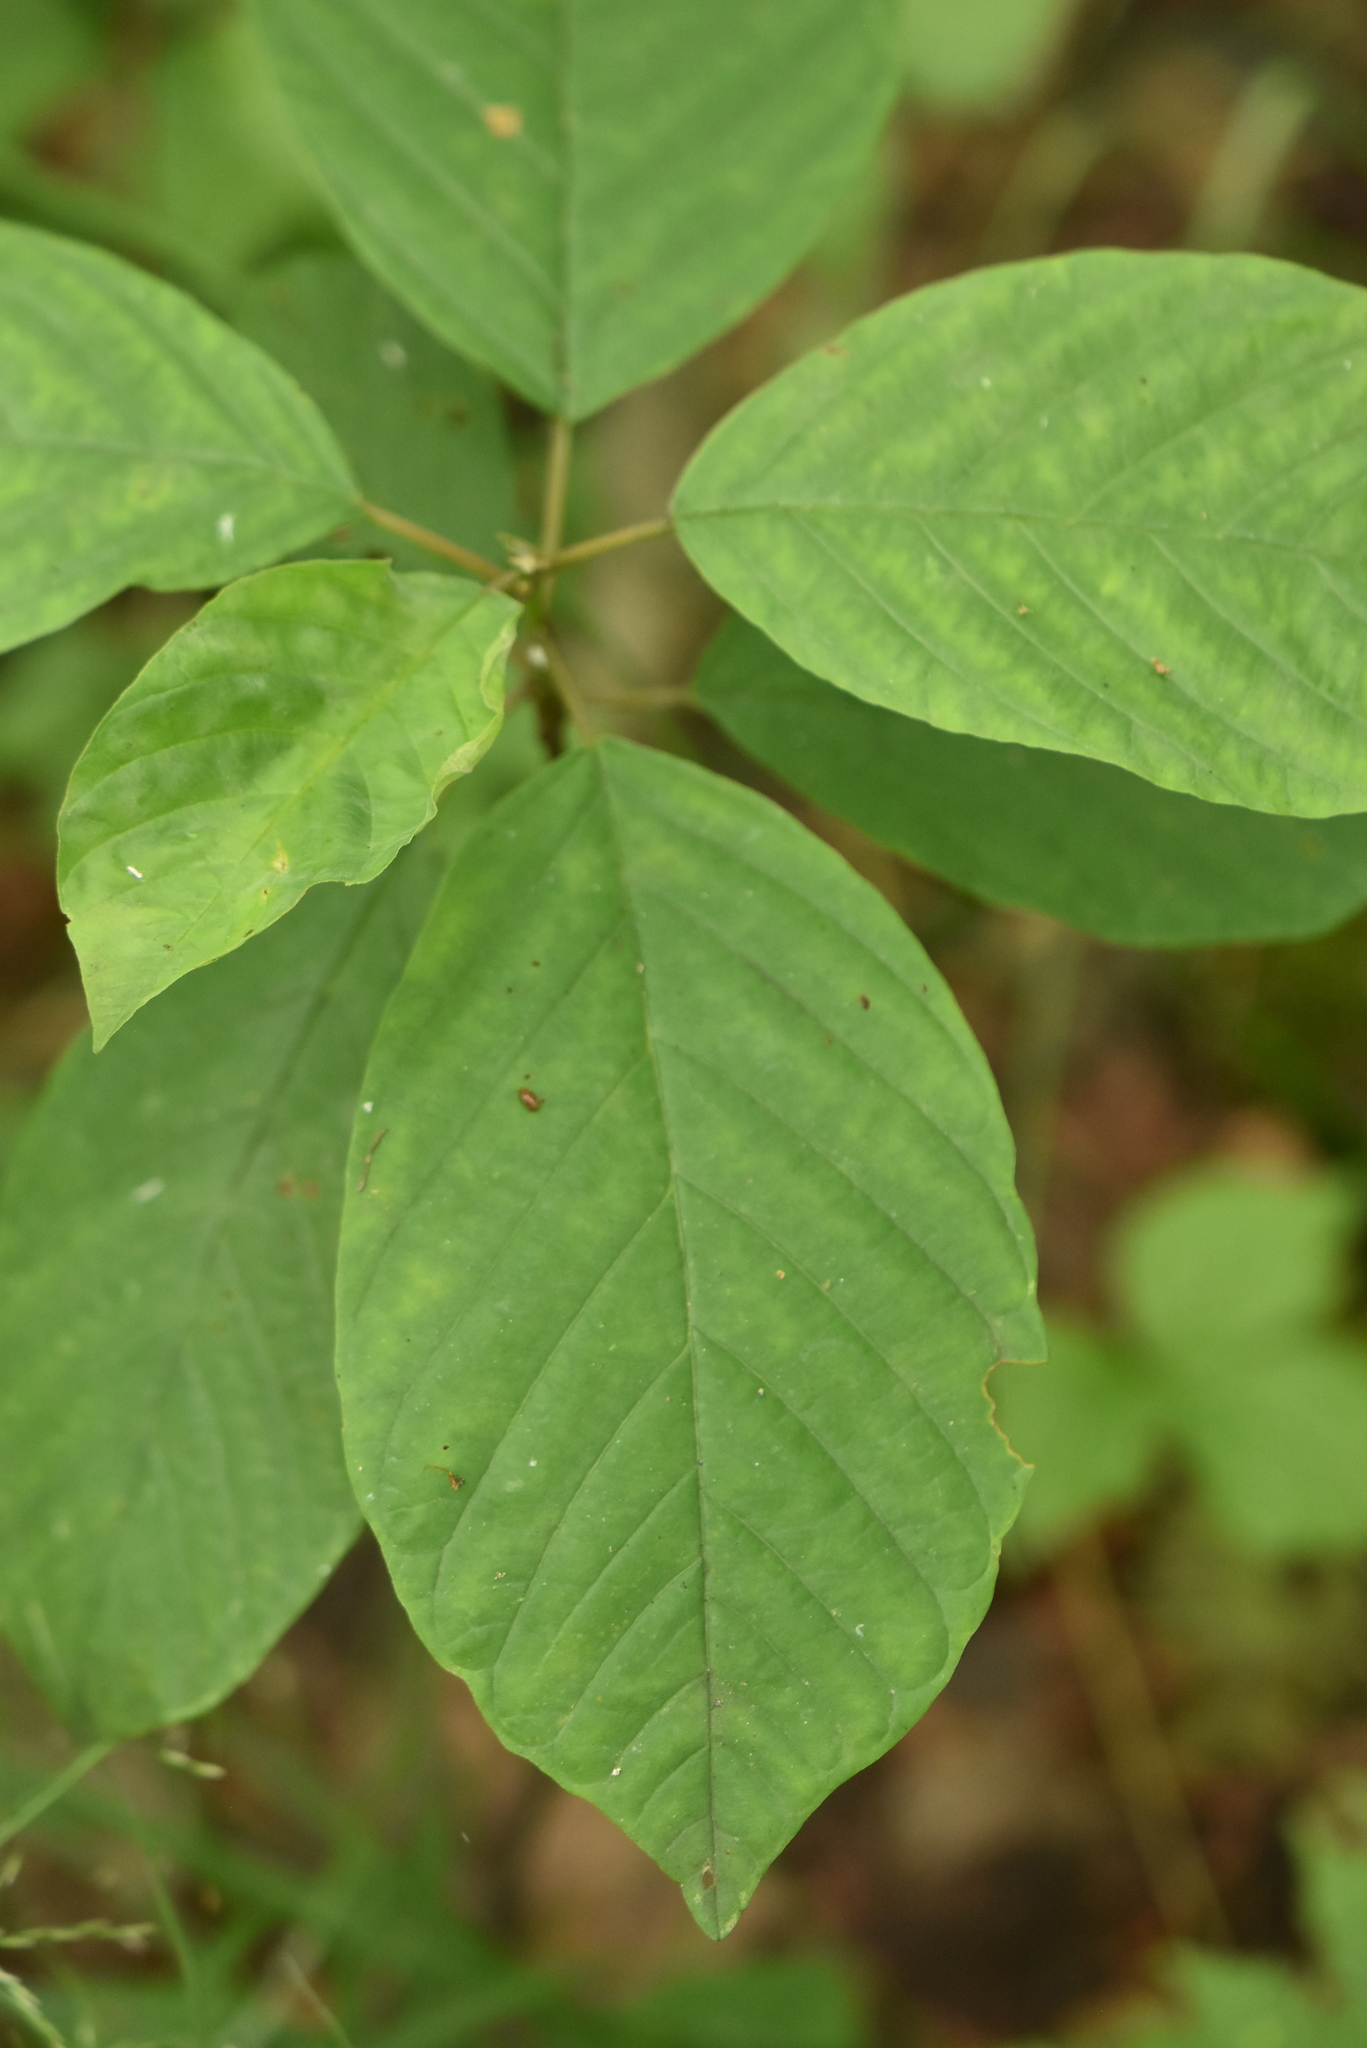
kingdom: Plantae
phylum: Tracheophyta
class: Magnoliopsida
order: Rosales
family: Rhamnaceae
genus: Frangula
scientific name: Frangula alnus
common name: Alder buckthorn
